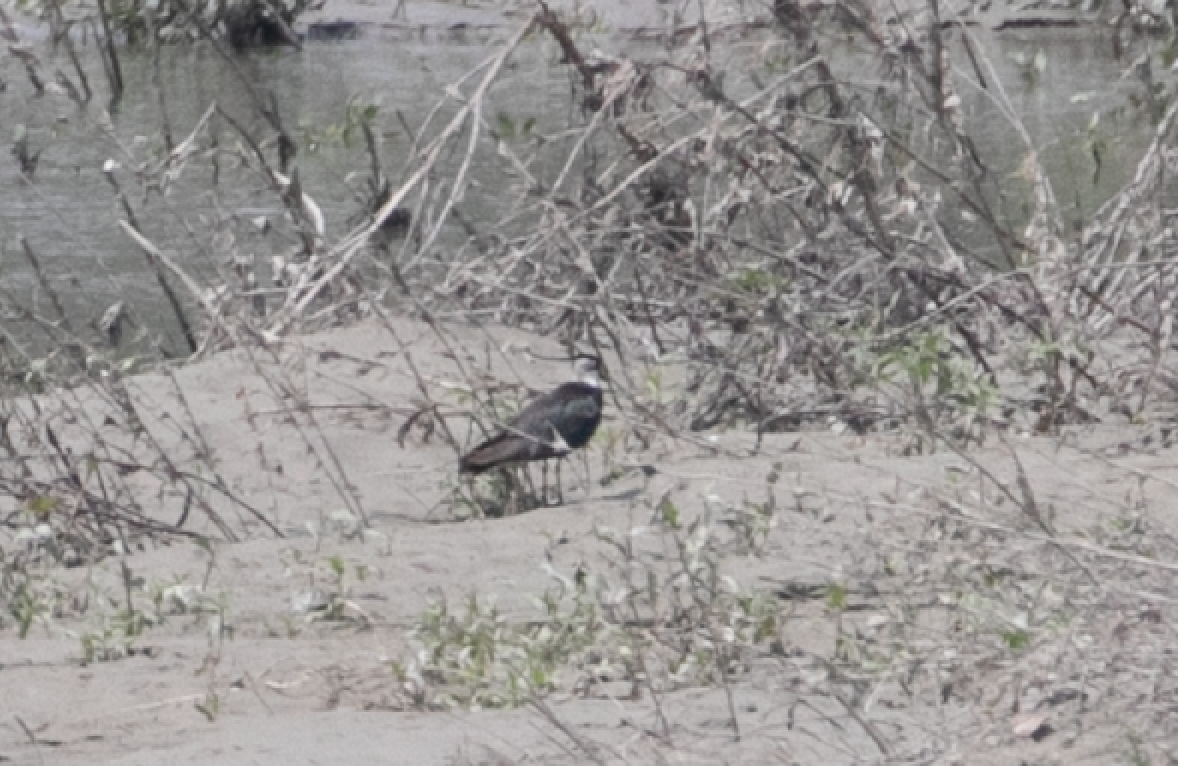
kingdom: Animalia
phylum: Chordata
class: Aves
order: Charadriiformes
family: Charadriidae
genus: Vanellus
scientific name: Vanellus vanellus
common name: Northern lapwing
